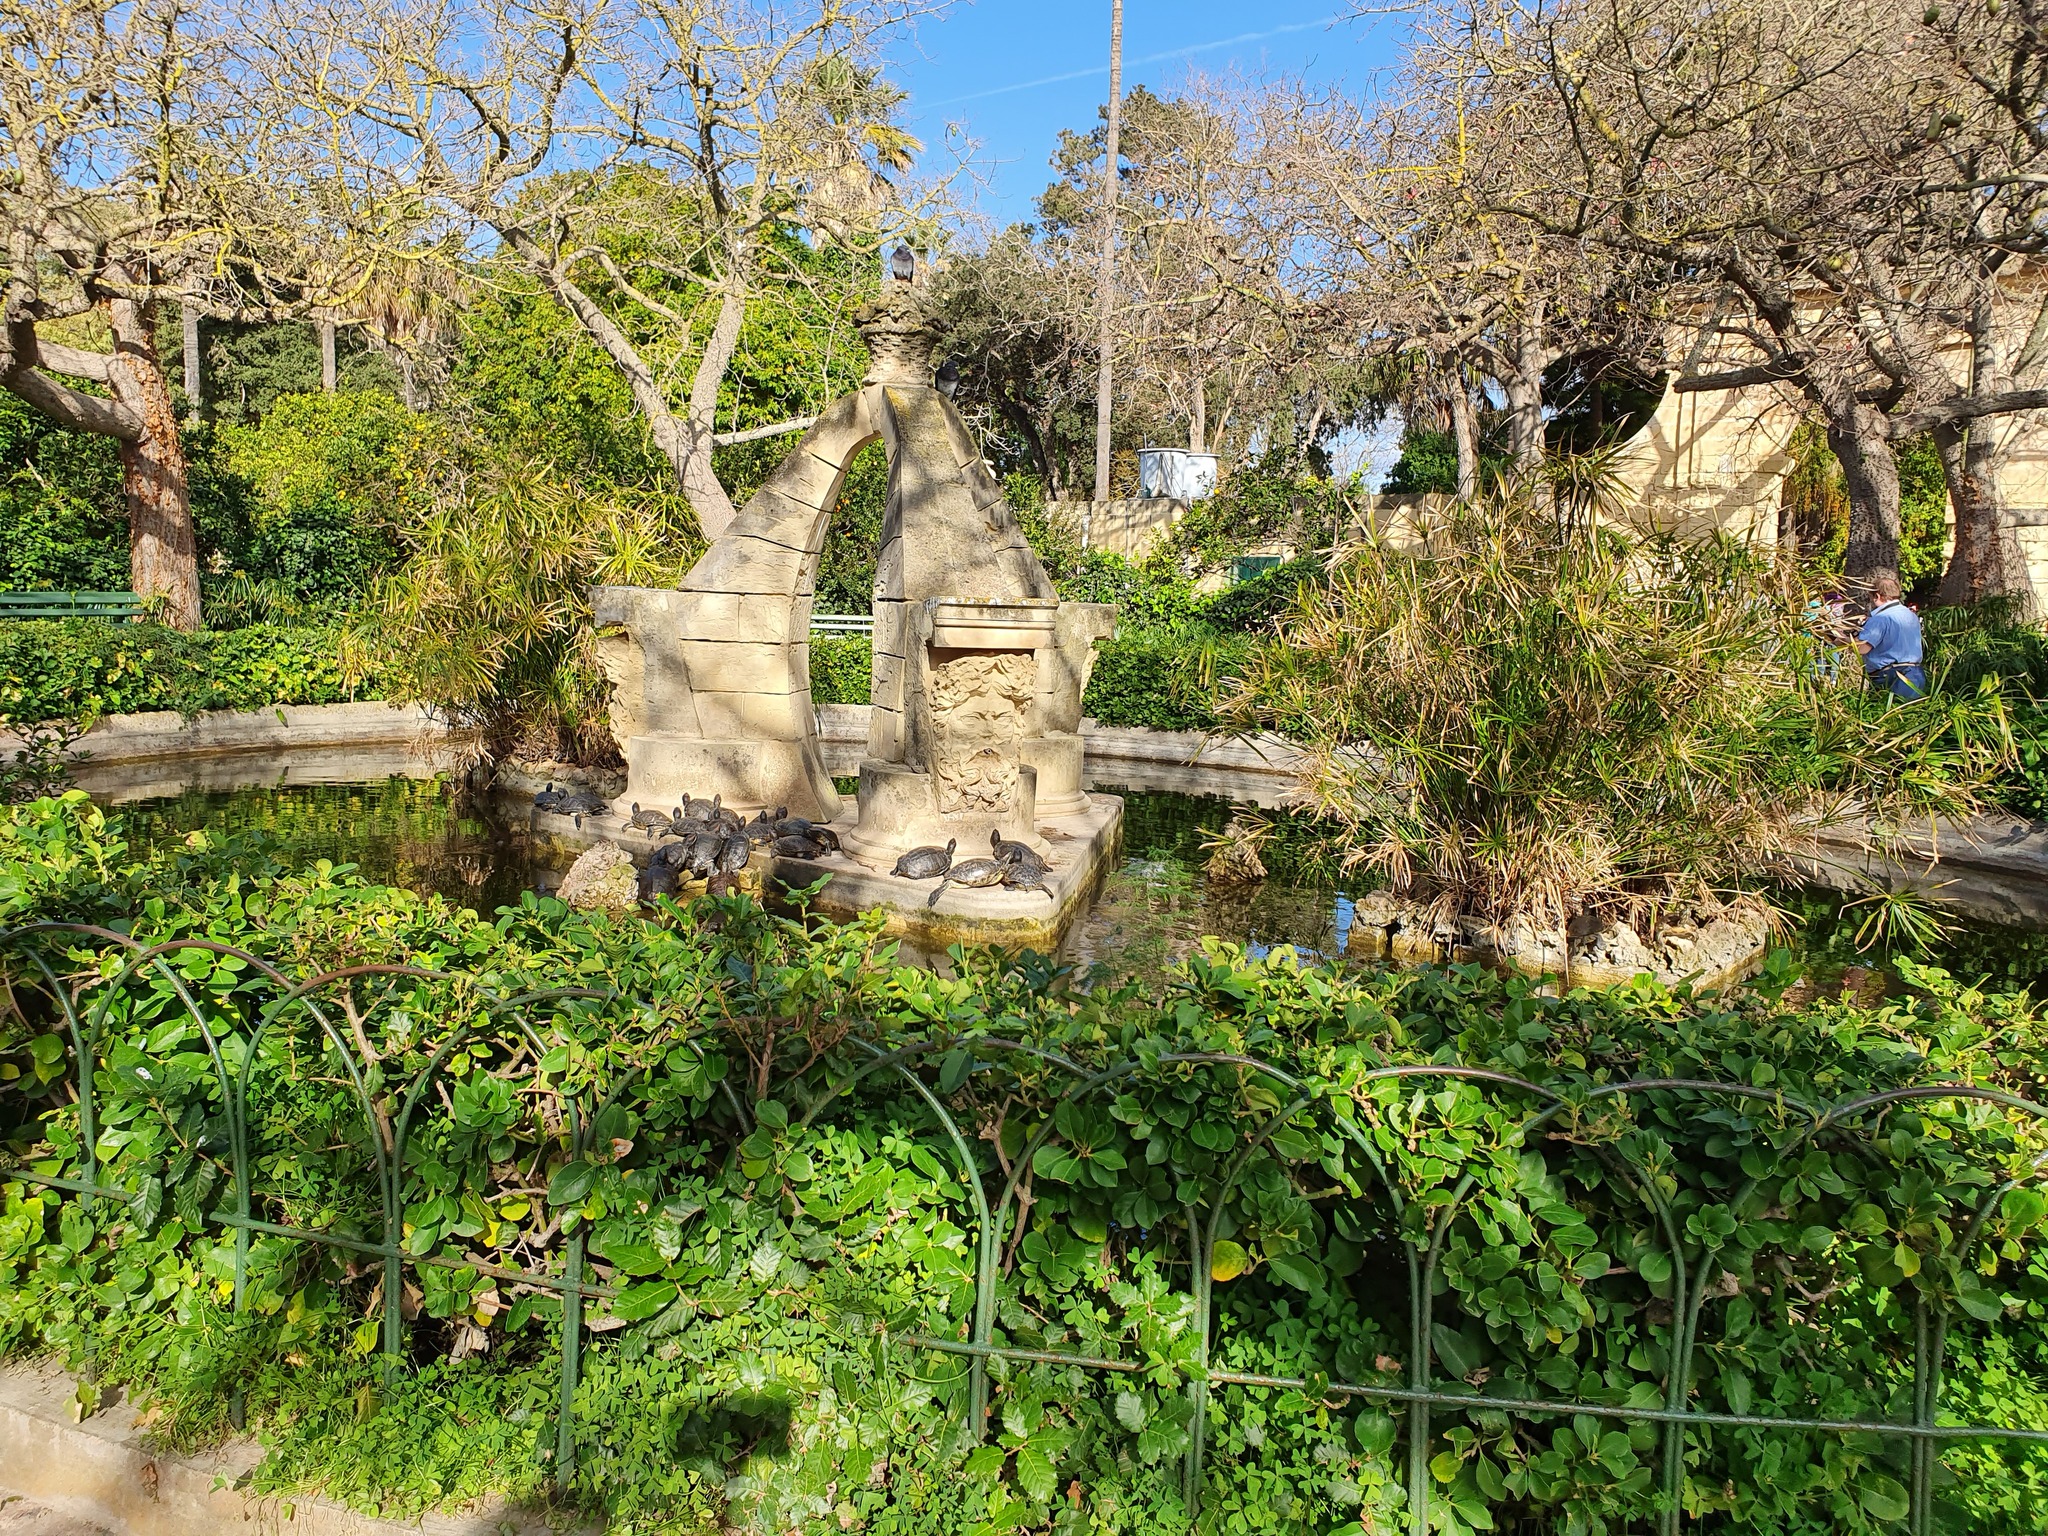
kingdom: Animalia
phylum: Chordata
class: Testudines
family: Emydidae
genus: Trachemys
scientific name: Trachemys scripta
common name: Slider
